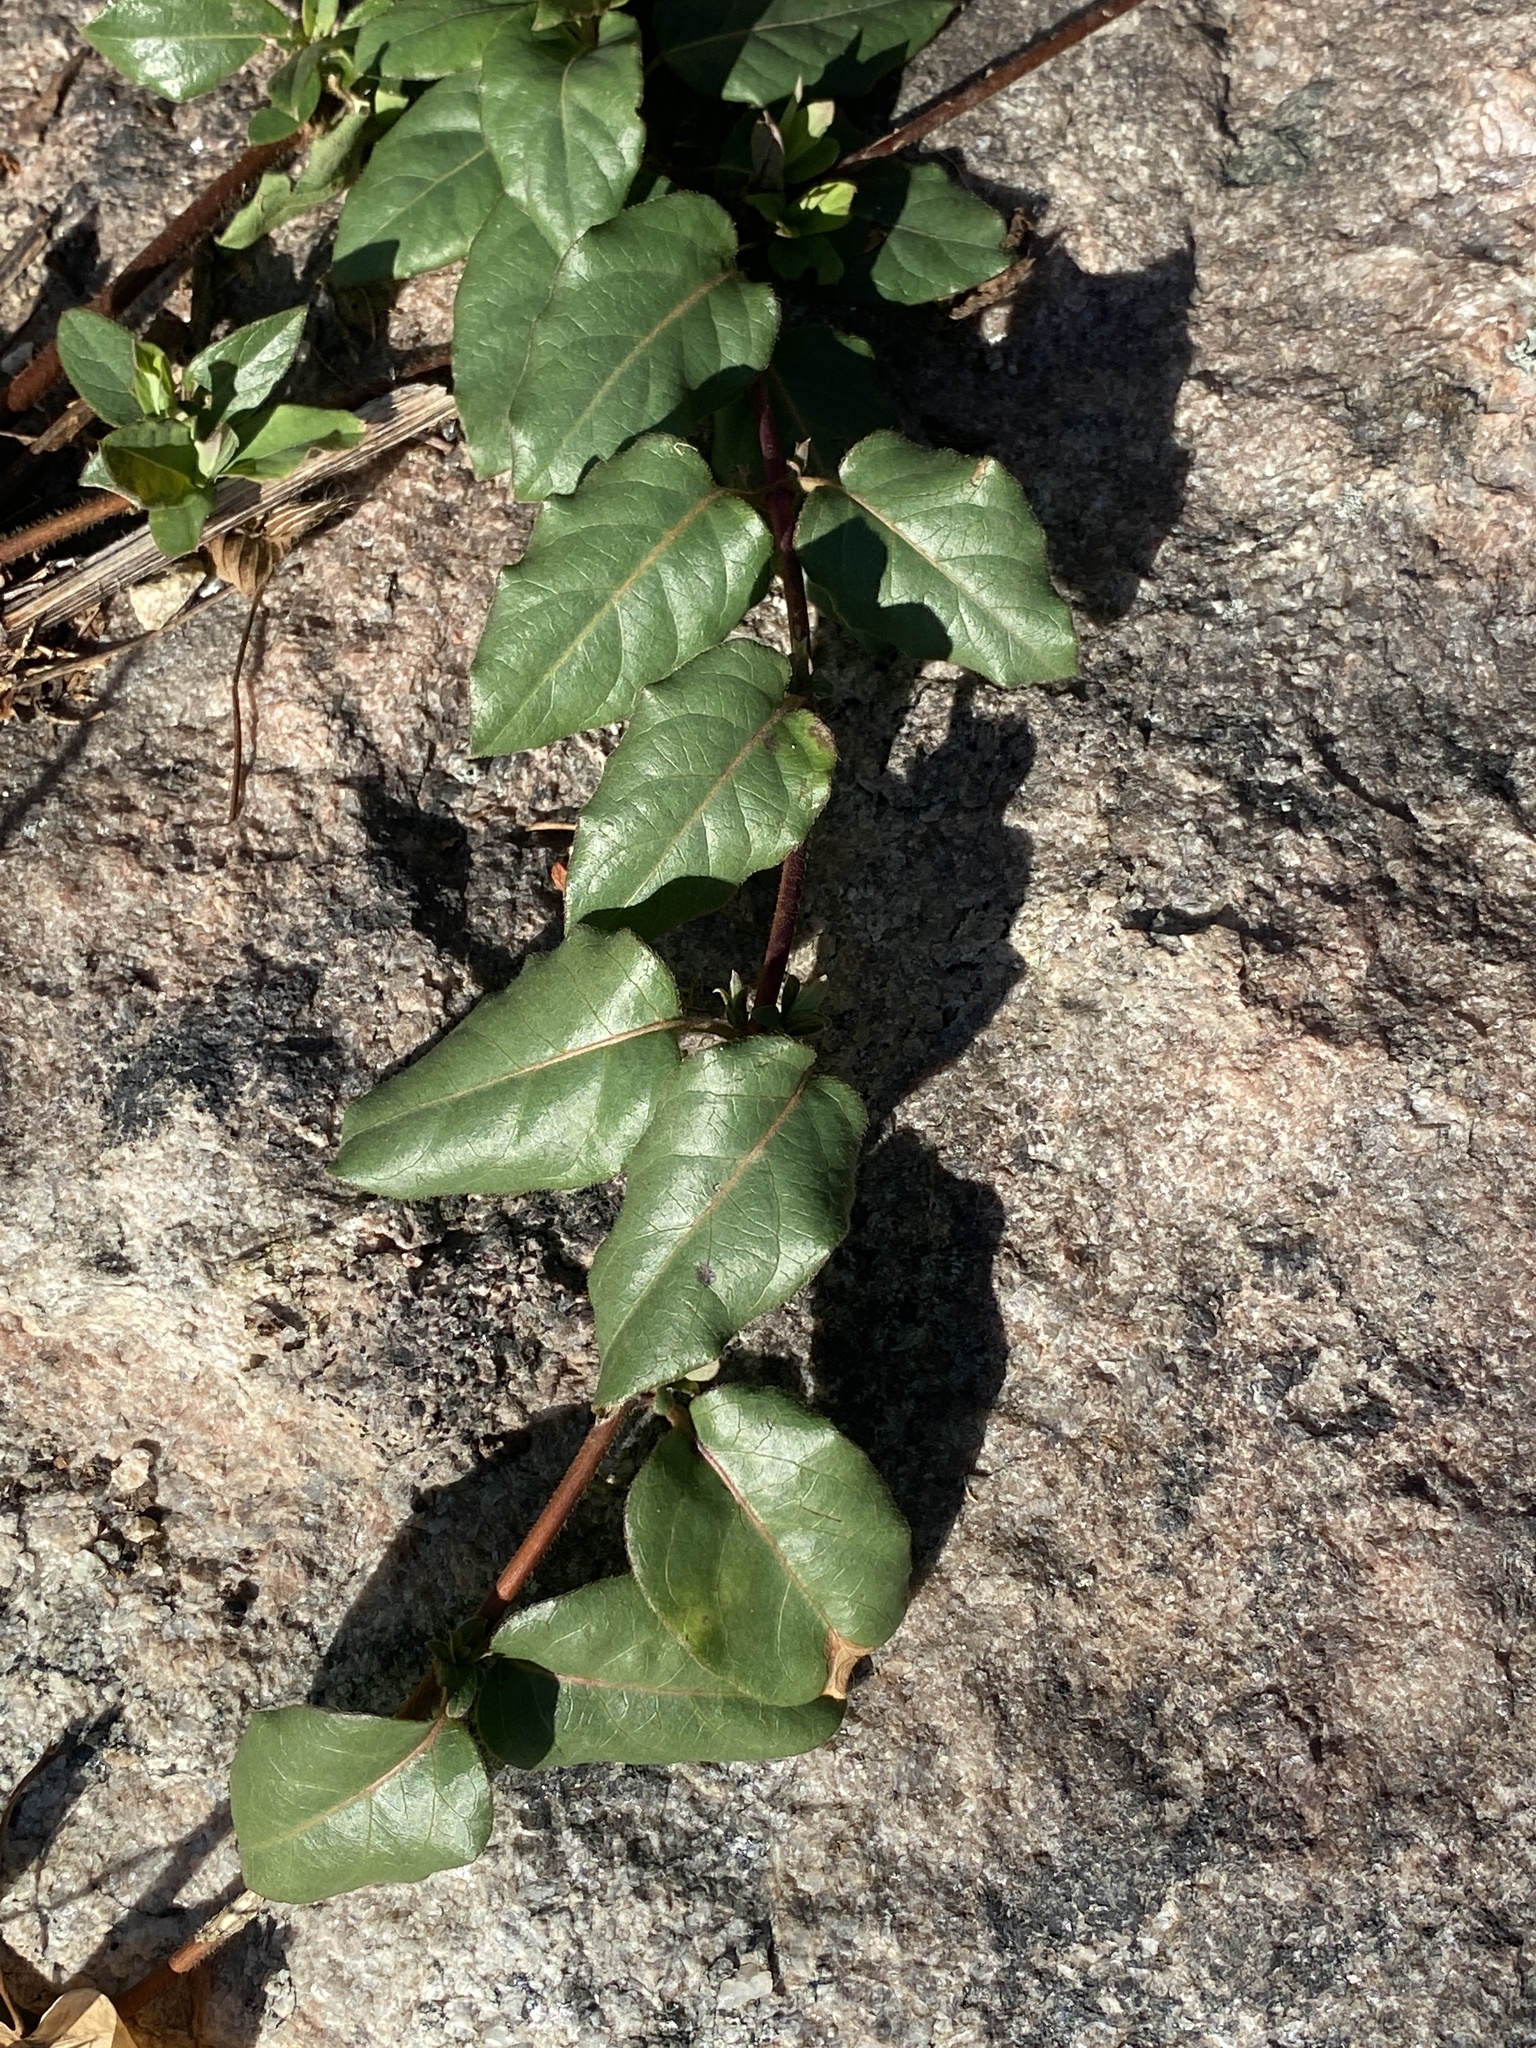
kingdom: Plantae
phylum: Tracheophyta
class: Magnoliopsida
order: Dipsacales
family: Caprifoliaceae
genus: Lonicera
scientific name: Lonicera japonica
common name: Japanese honeysuckle
